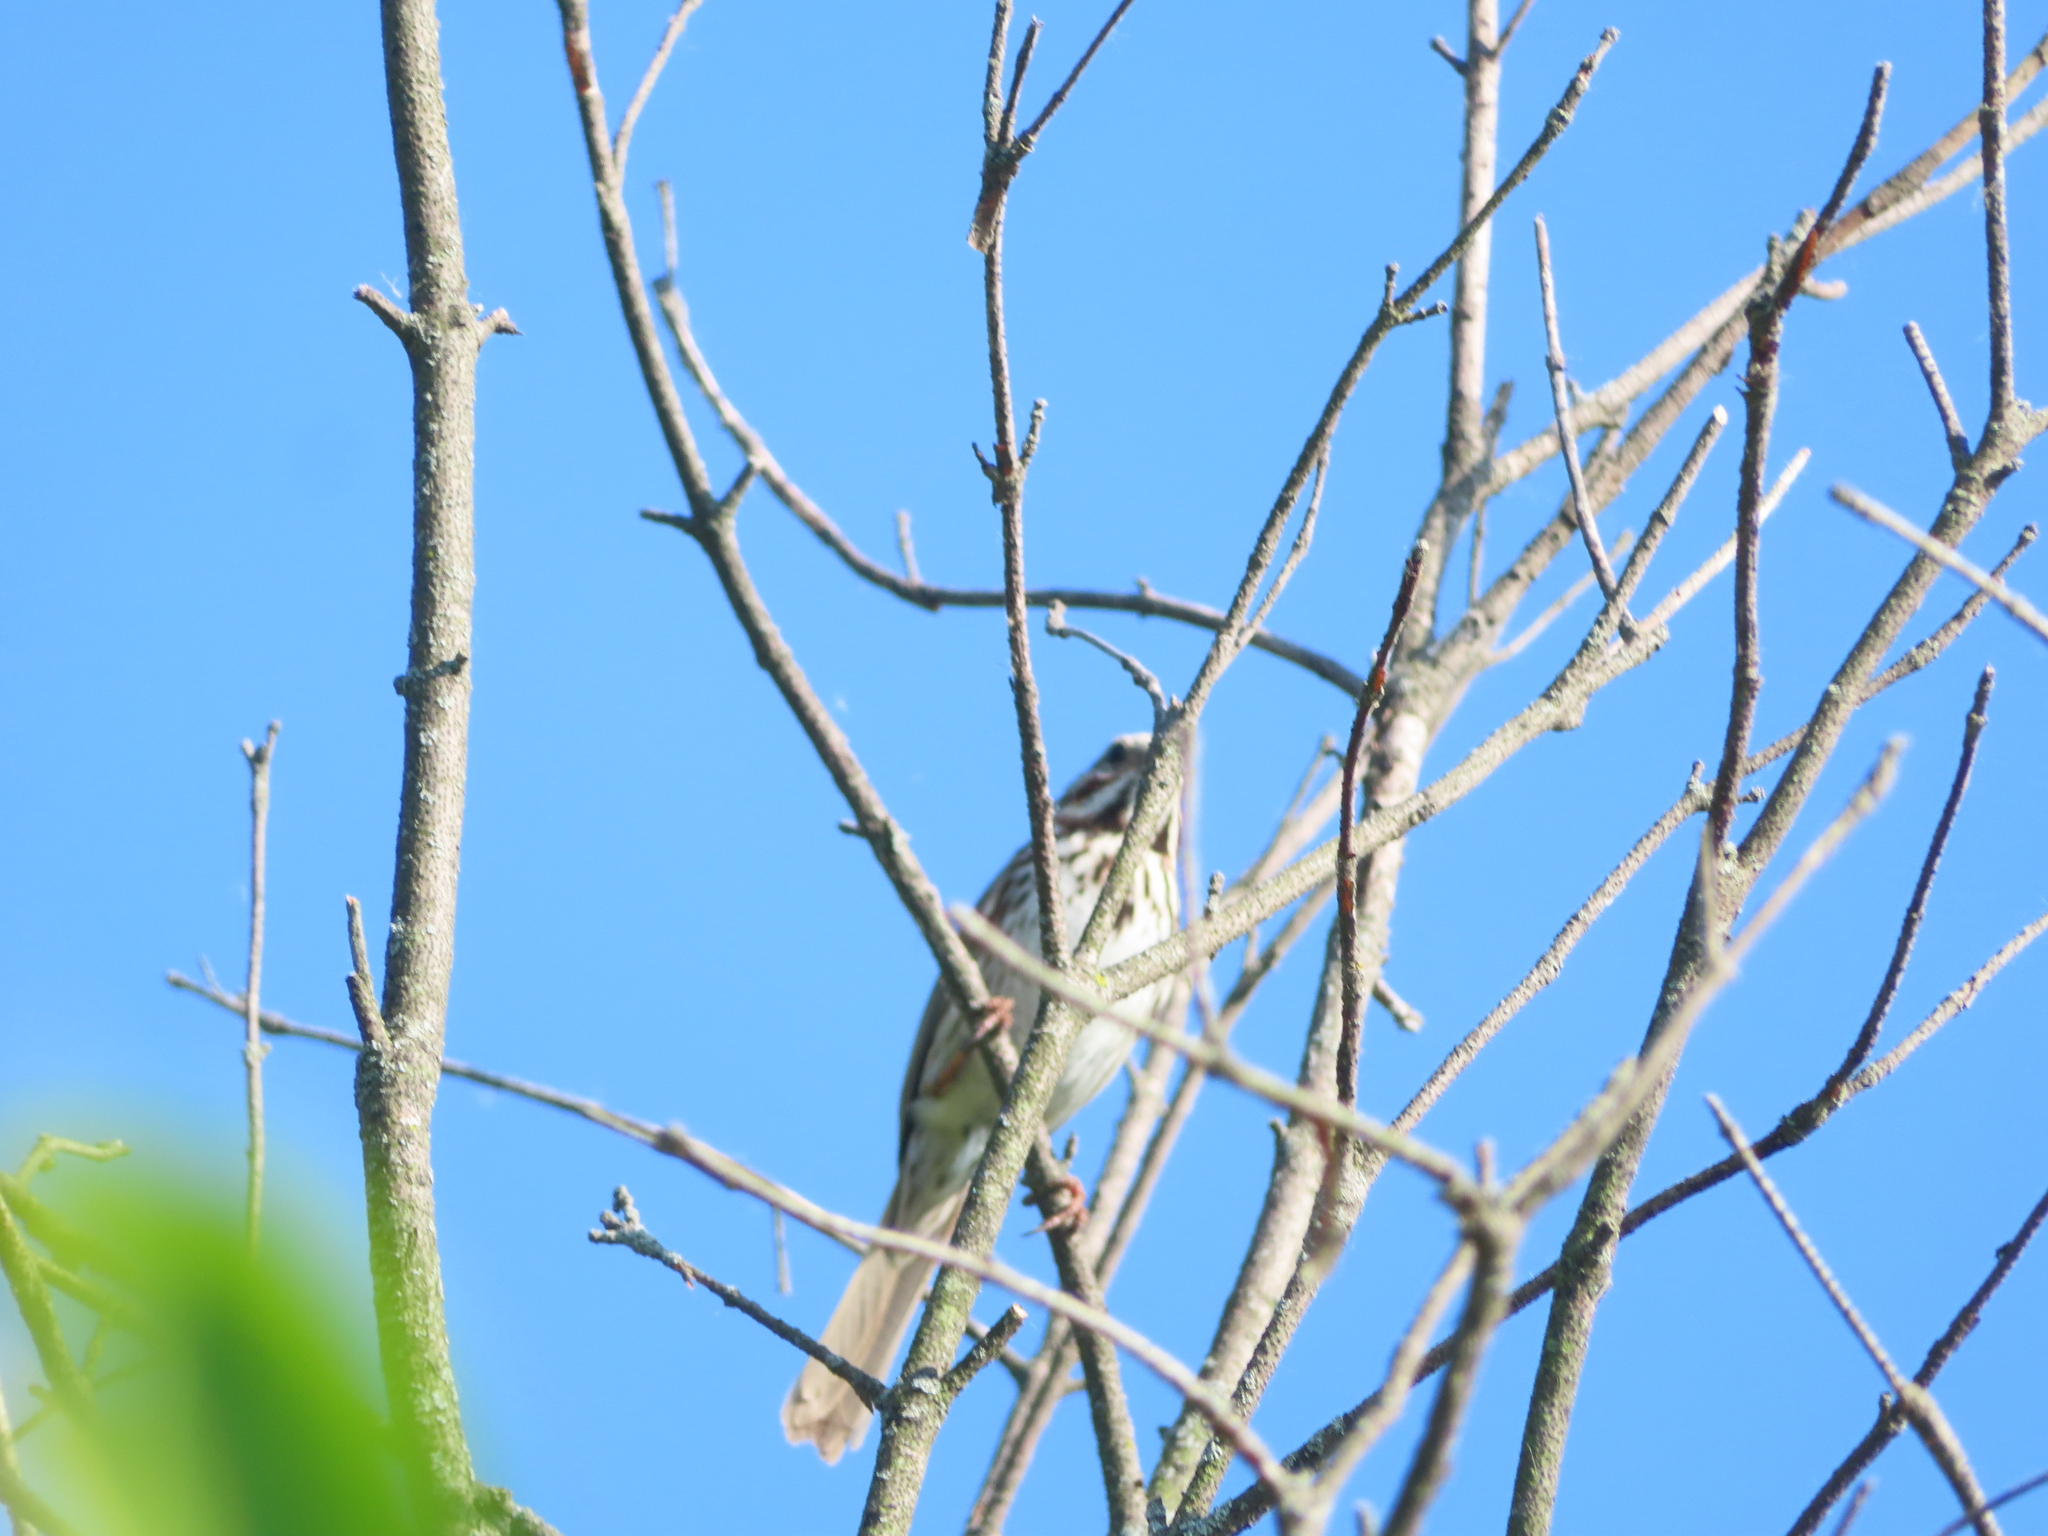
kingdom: Animalia
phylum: Chordata
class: Aves
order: Passeriformes
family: Passerellidae
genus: Melospiza
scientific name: Melospiza melodia
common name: Song sparrow
